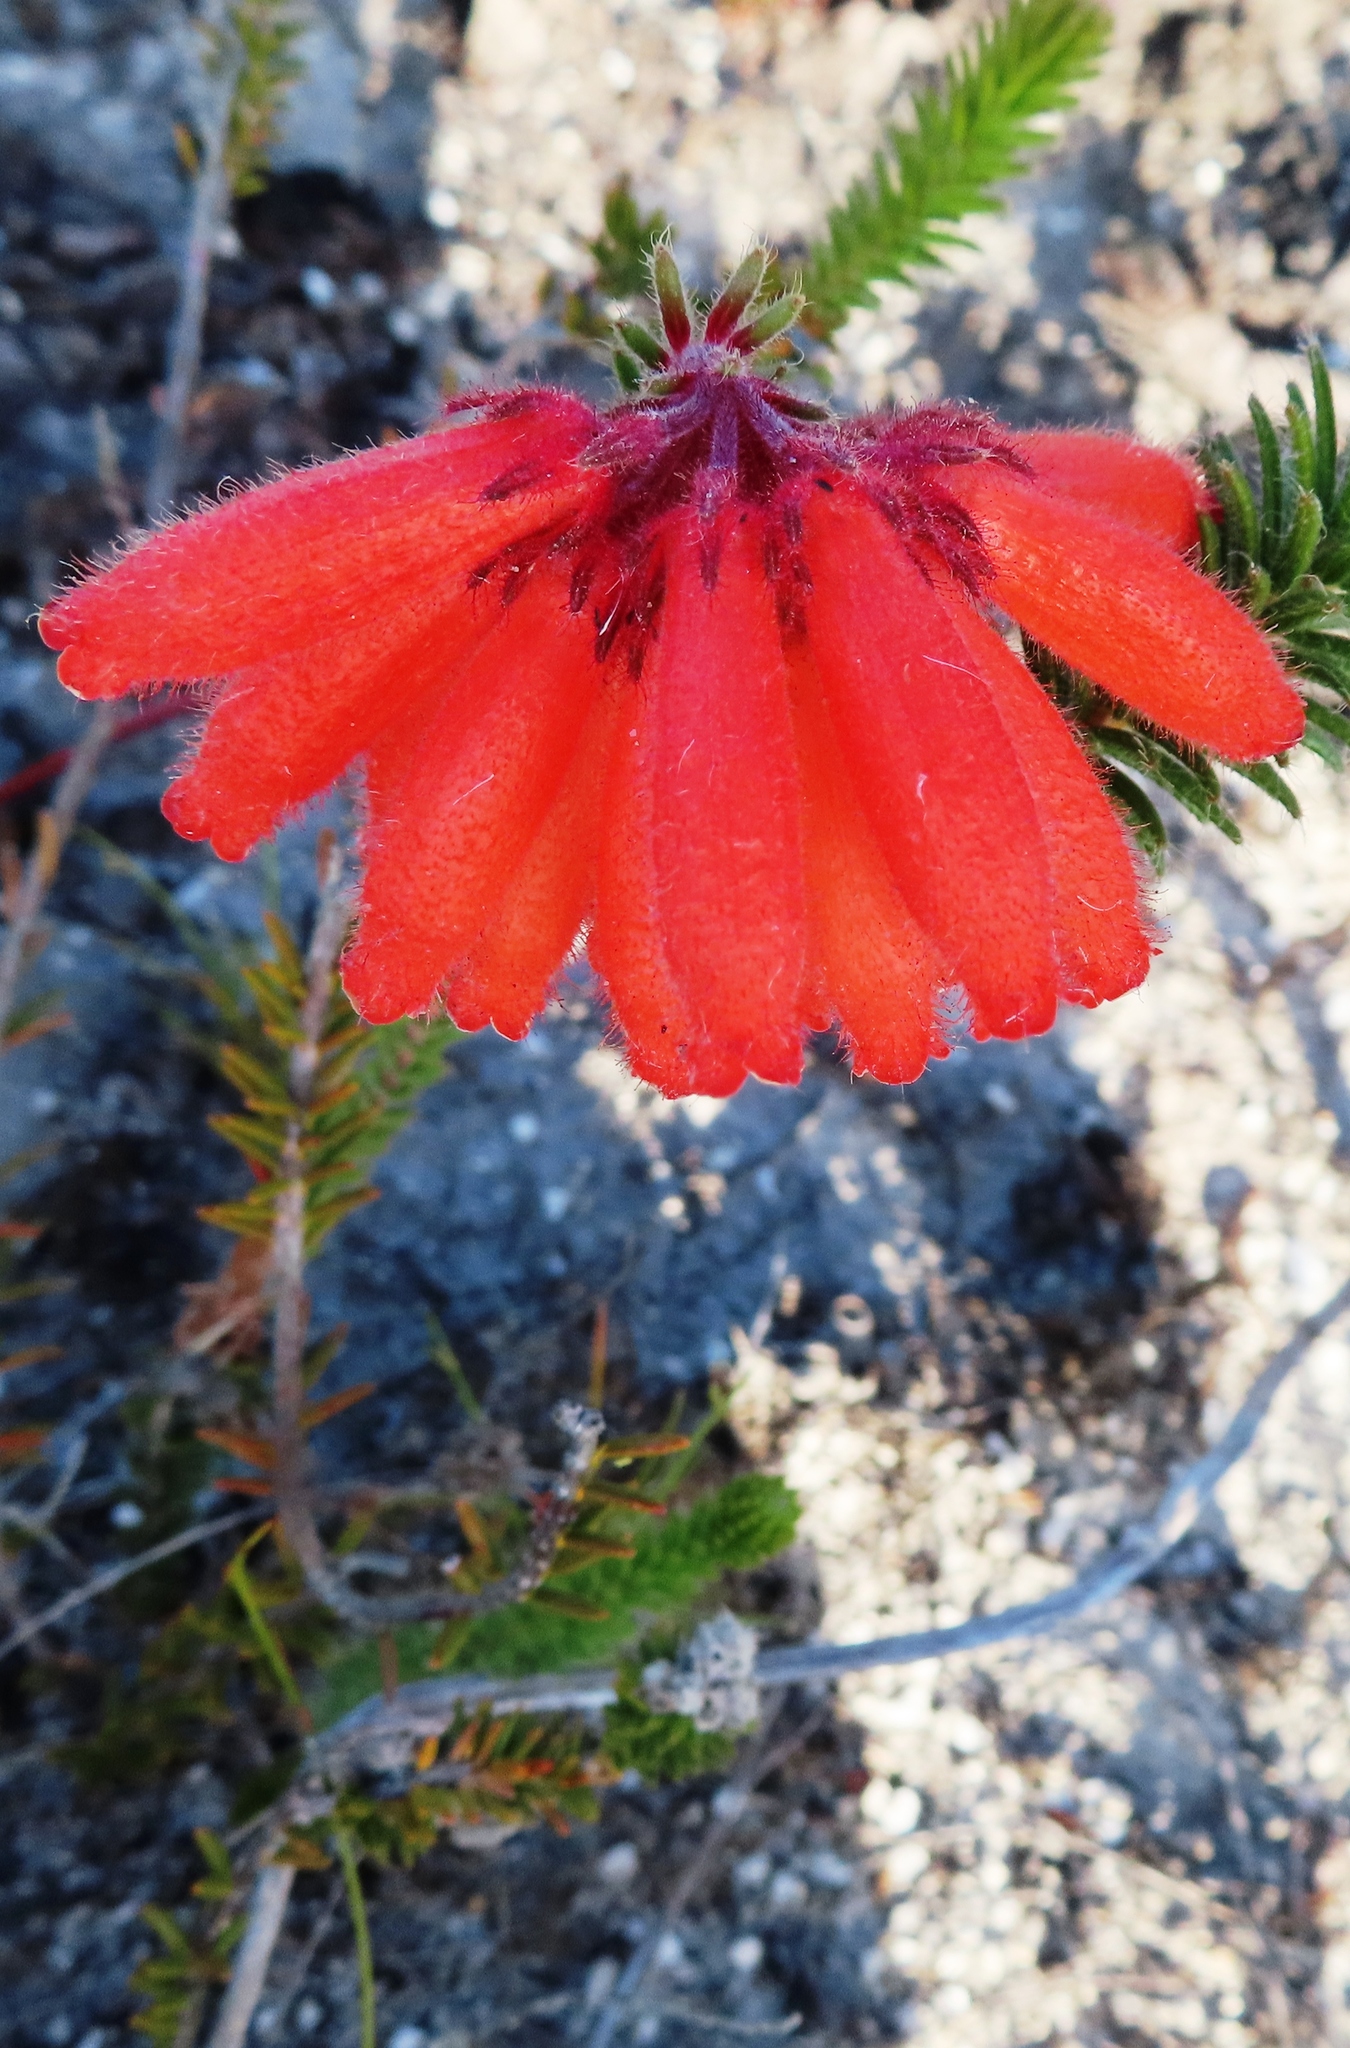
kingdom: Plantae
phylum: Tracheophyta
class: Magnoliopsida
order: Ericales
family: Ericaceae
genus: Erica
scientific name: Erica cerinthoides
